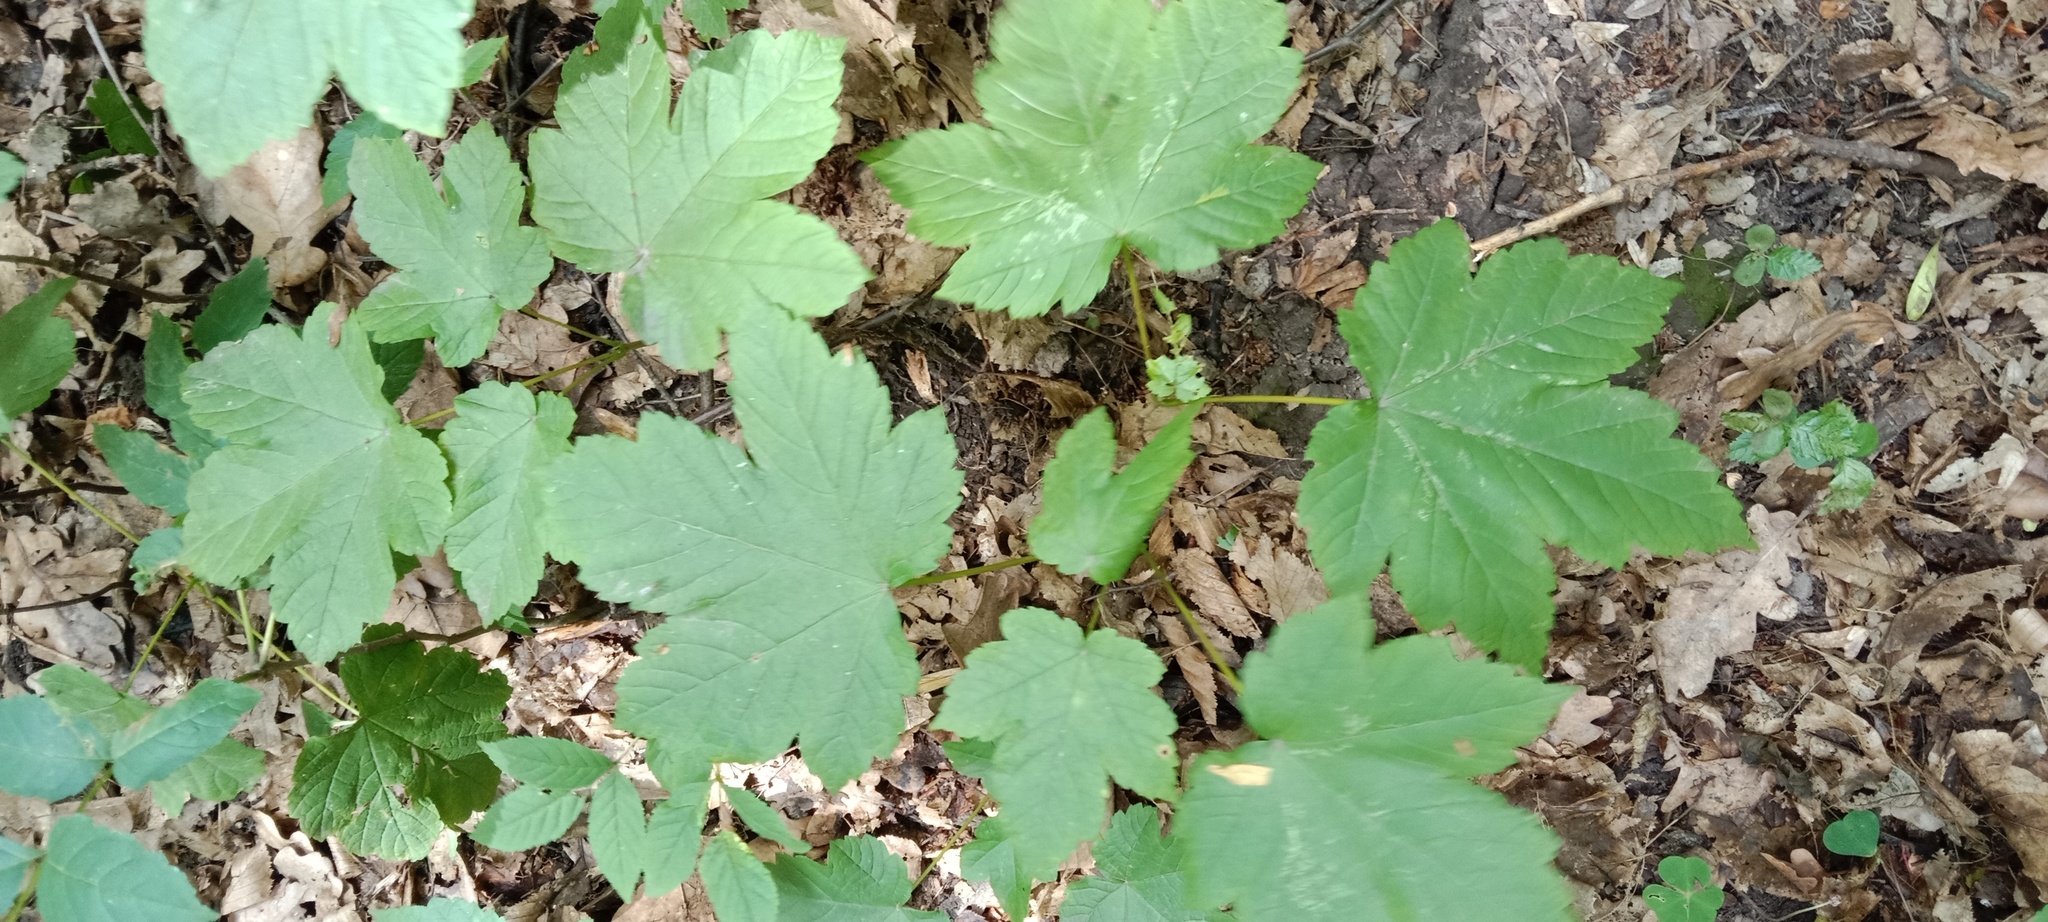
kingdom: Plantae
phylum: Tracheophyta
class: Magnoliopsida
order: Sapindales
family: Sapindaceae
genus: Acer
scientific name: Acer pseudoplatanus
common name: Sycamore
